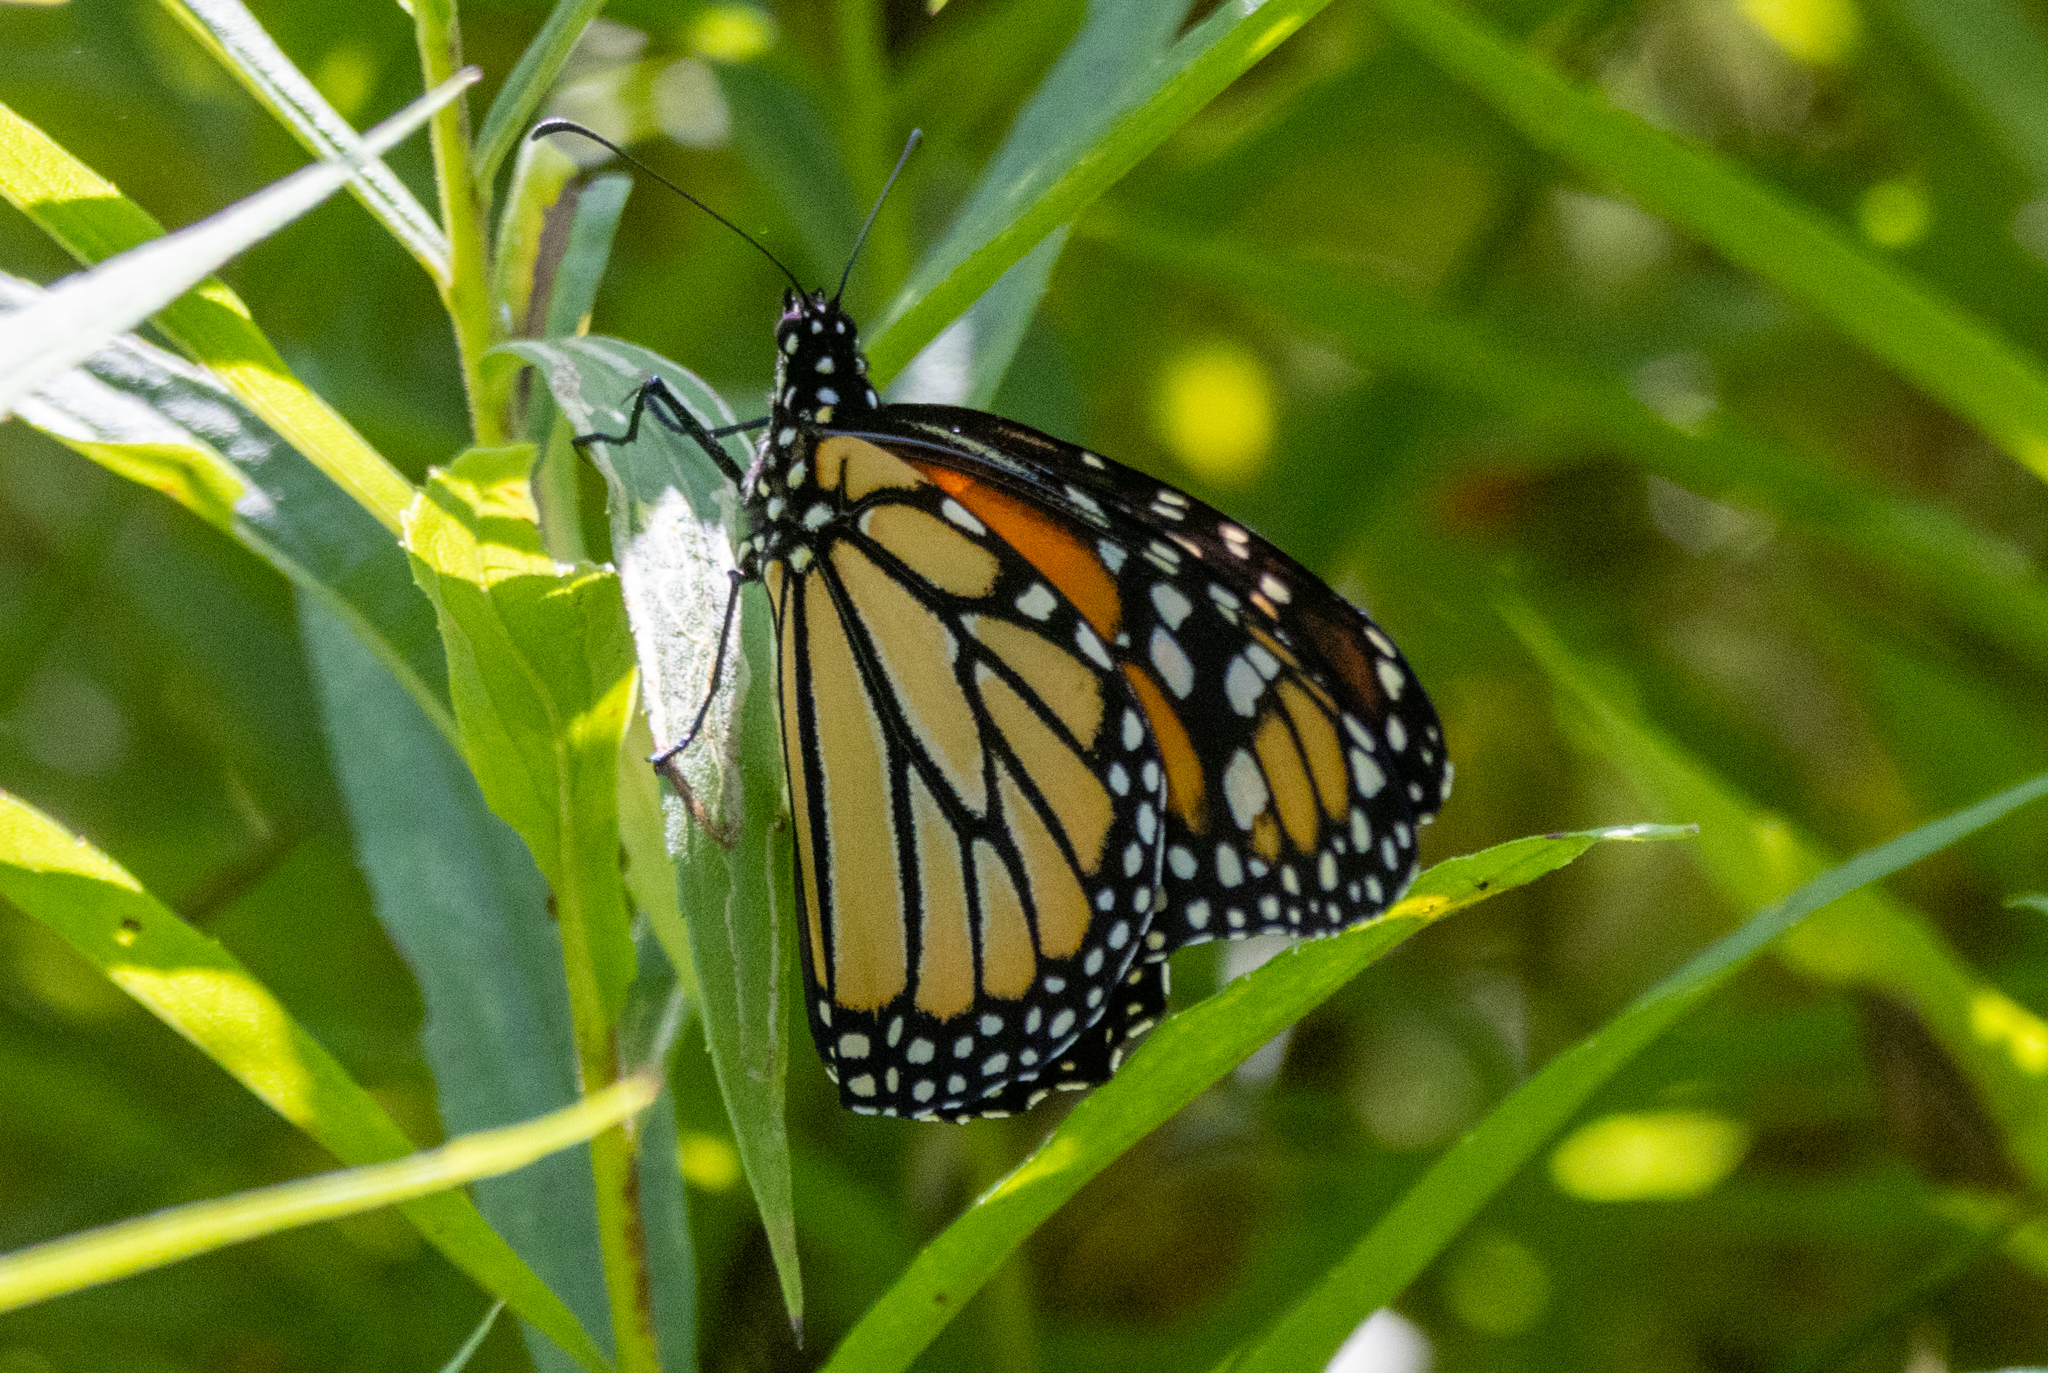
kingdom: Animalia
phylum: Arthropoda
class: Insecta
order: Lepidoptera
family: Nymphalidae
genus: Danaus
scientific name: Danaus plexippus
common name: Monarch
